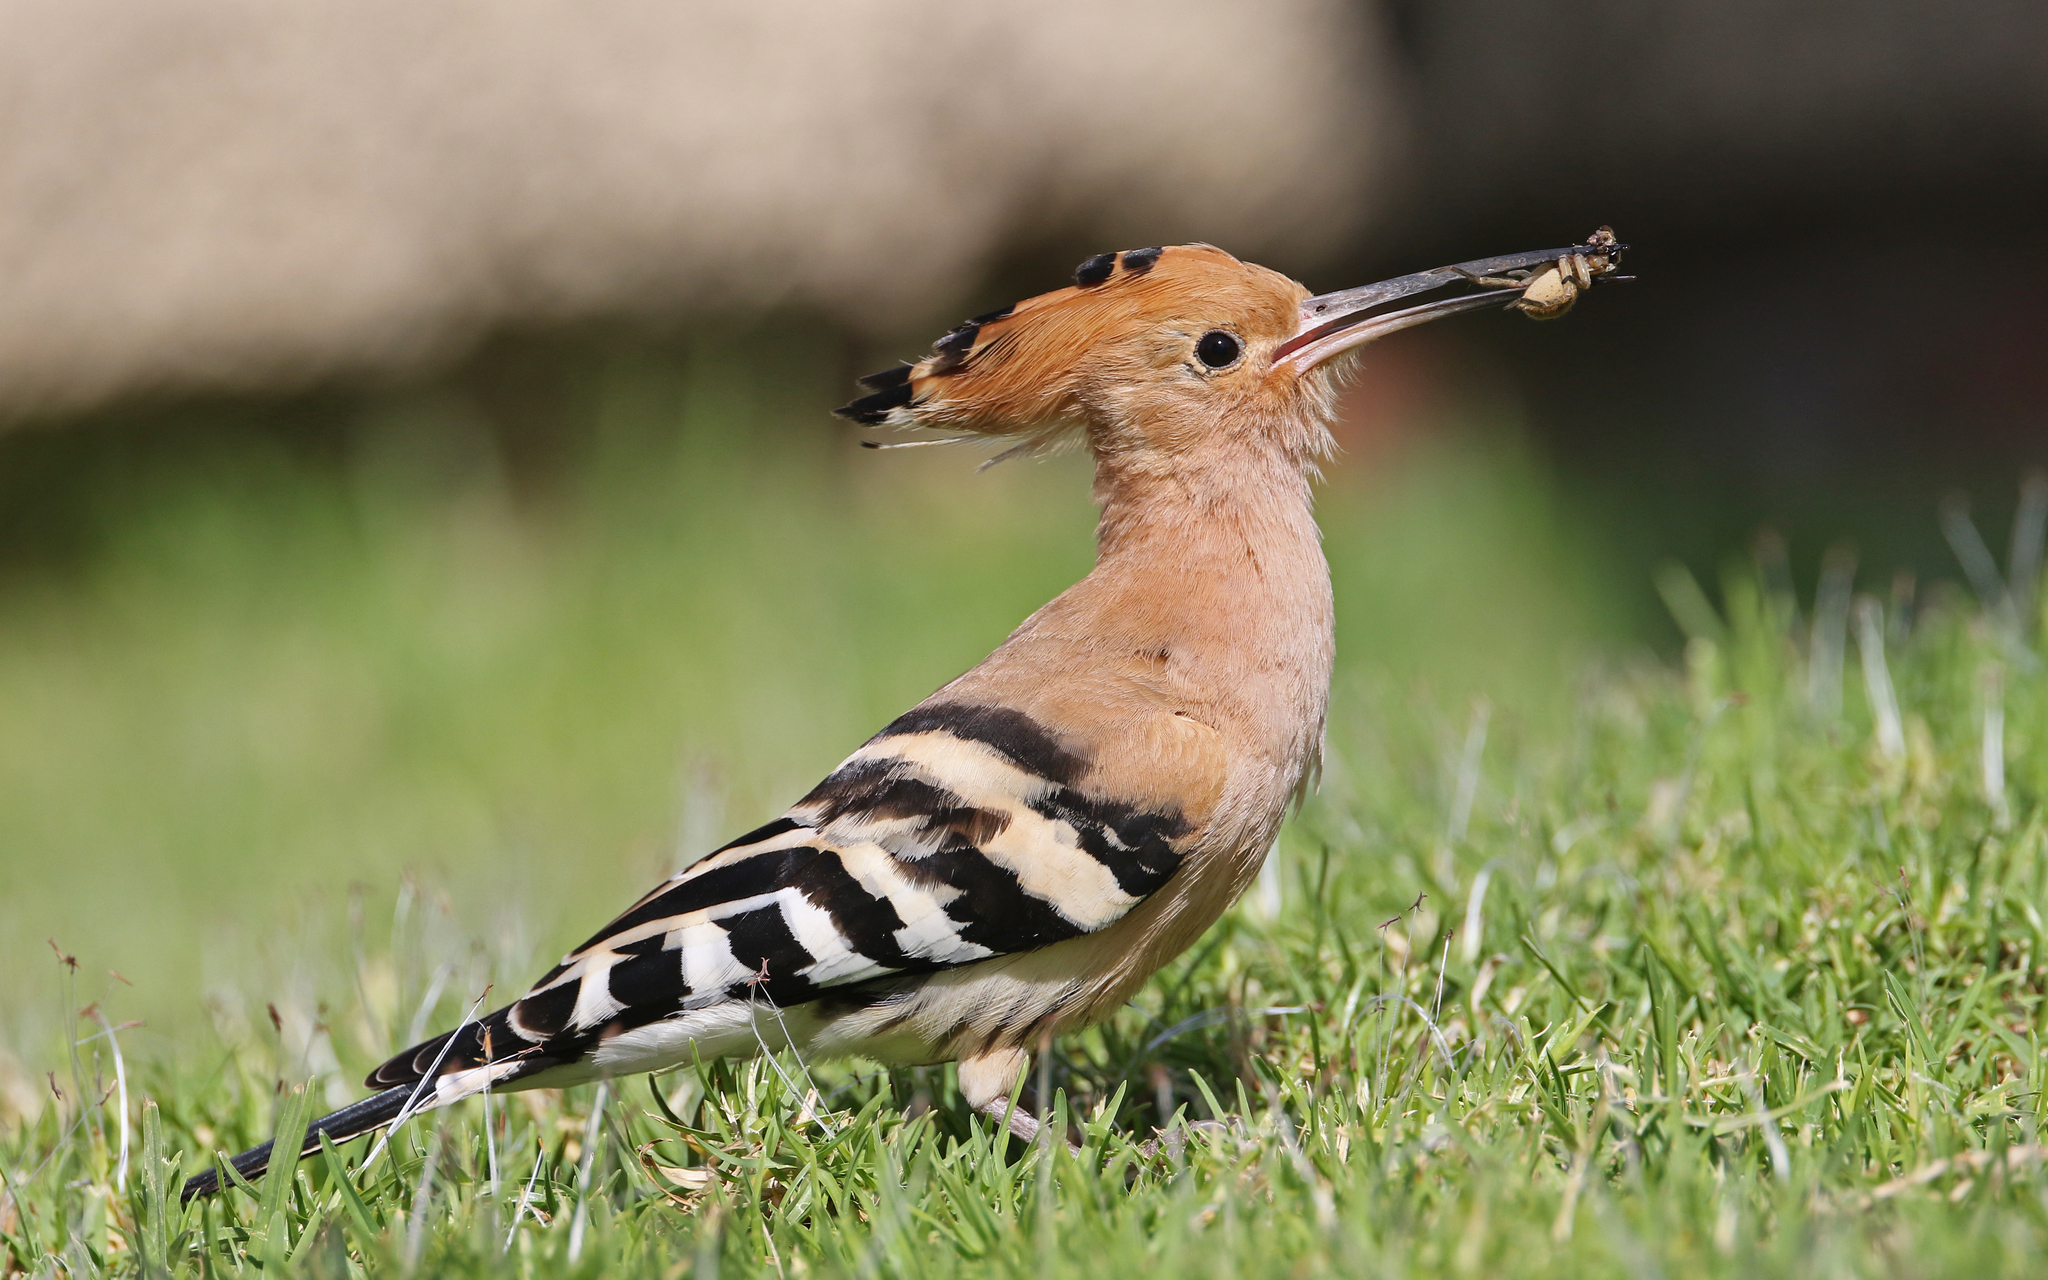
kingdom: Animalia
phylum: Chordata
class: Aves
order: Bucerotiformes
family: Upupidae
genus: Upupa
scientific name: Upupa epops
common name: Eurasian hoopoe
